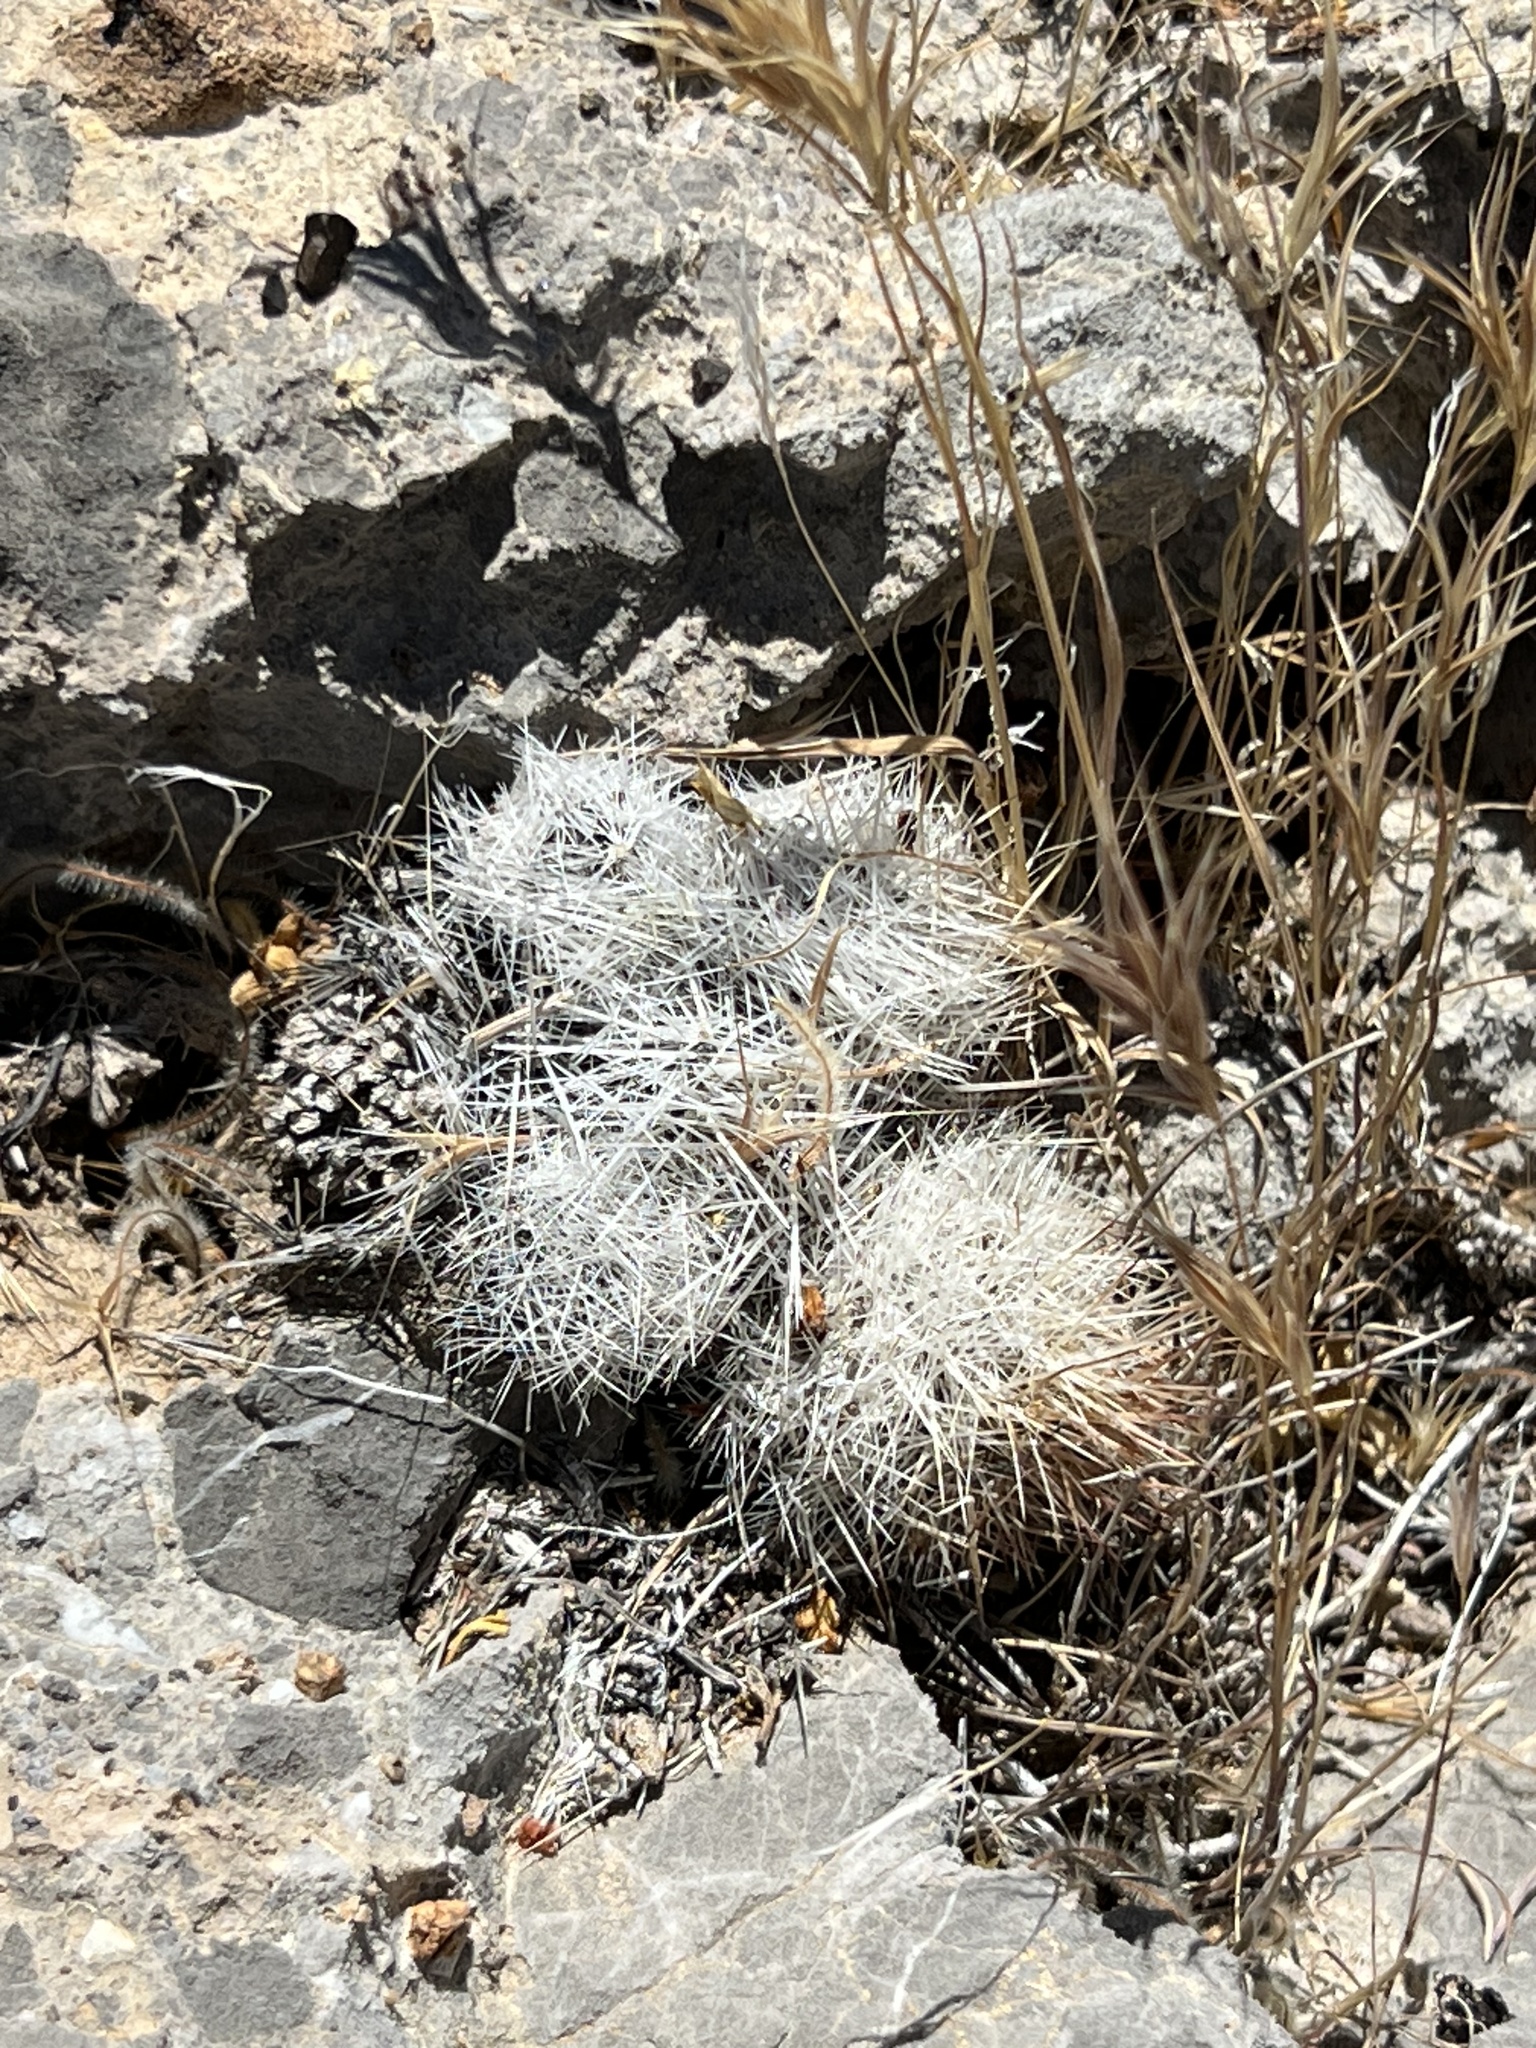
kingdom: Plantae
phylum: Tracheophyta
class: Magnoliopsida
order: Caryophyllales
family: Cactaceae
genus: Pelecyphora
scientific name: Pelecyphora dasyacantha
